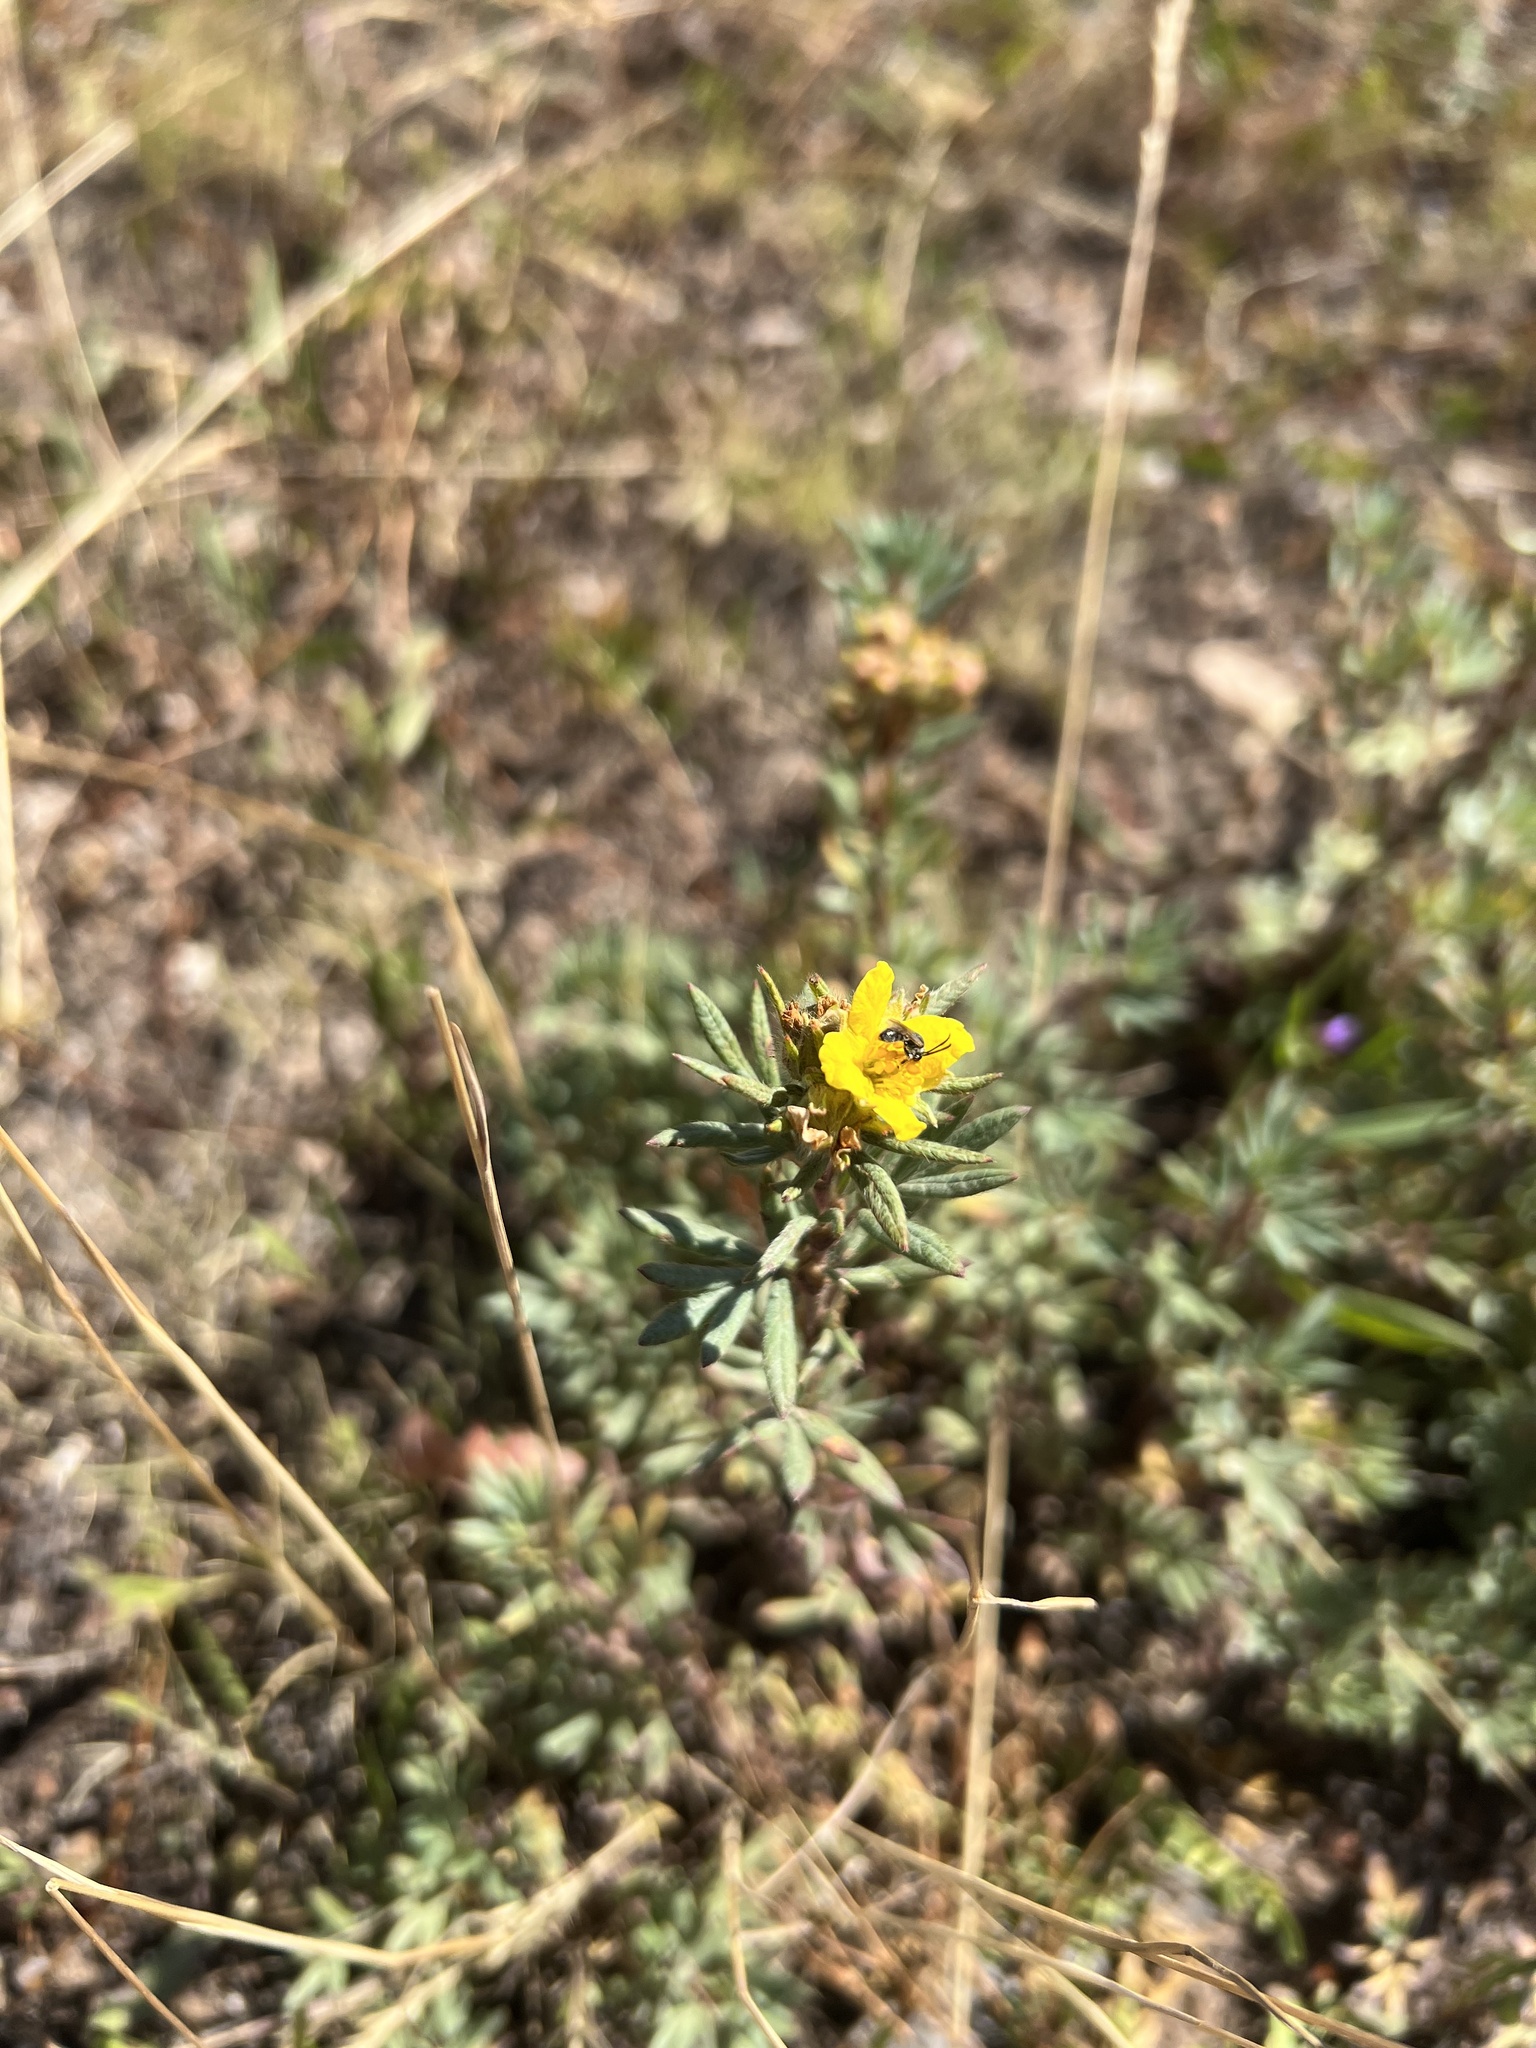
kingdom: Plantae
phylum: Tracheophyta
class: Magnoliopsida
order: Rosales
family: Rosaceae
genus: Dasiphora
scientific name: Dasiphora fruticosa
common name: Shrubby cinquefoil
